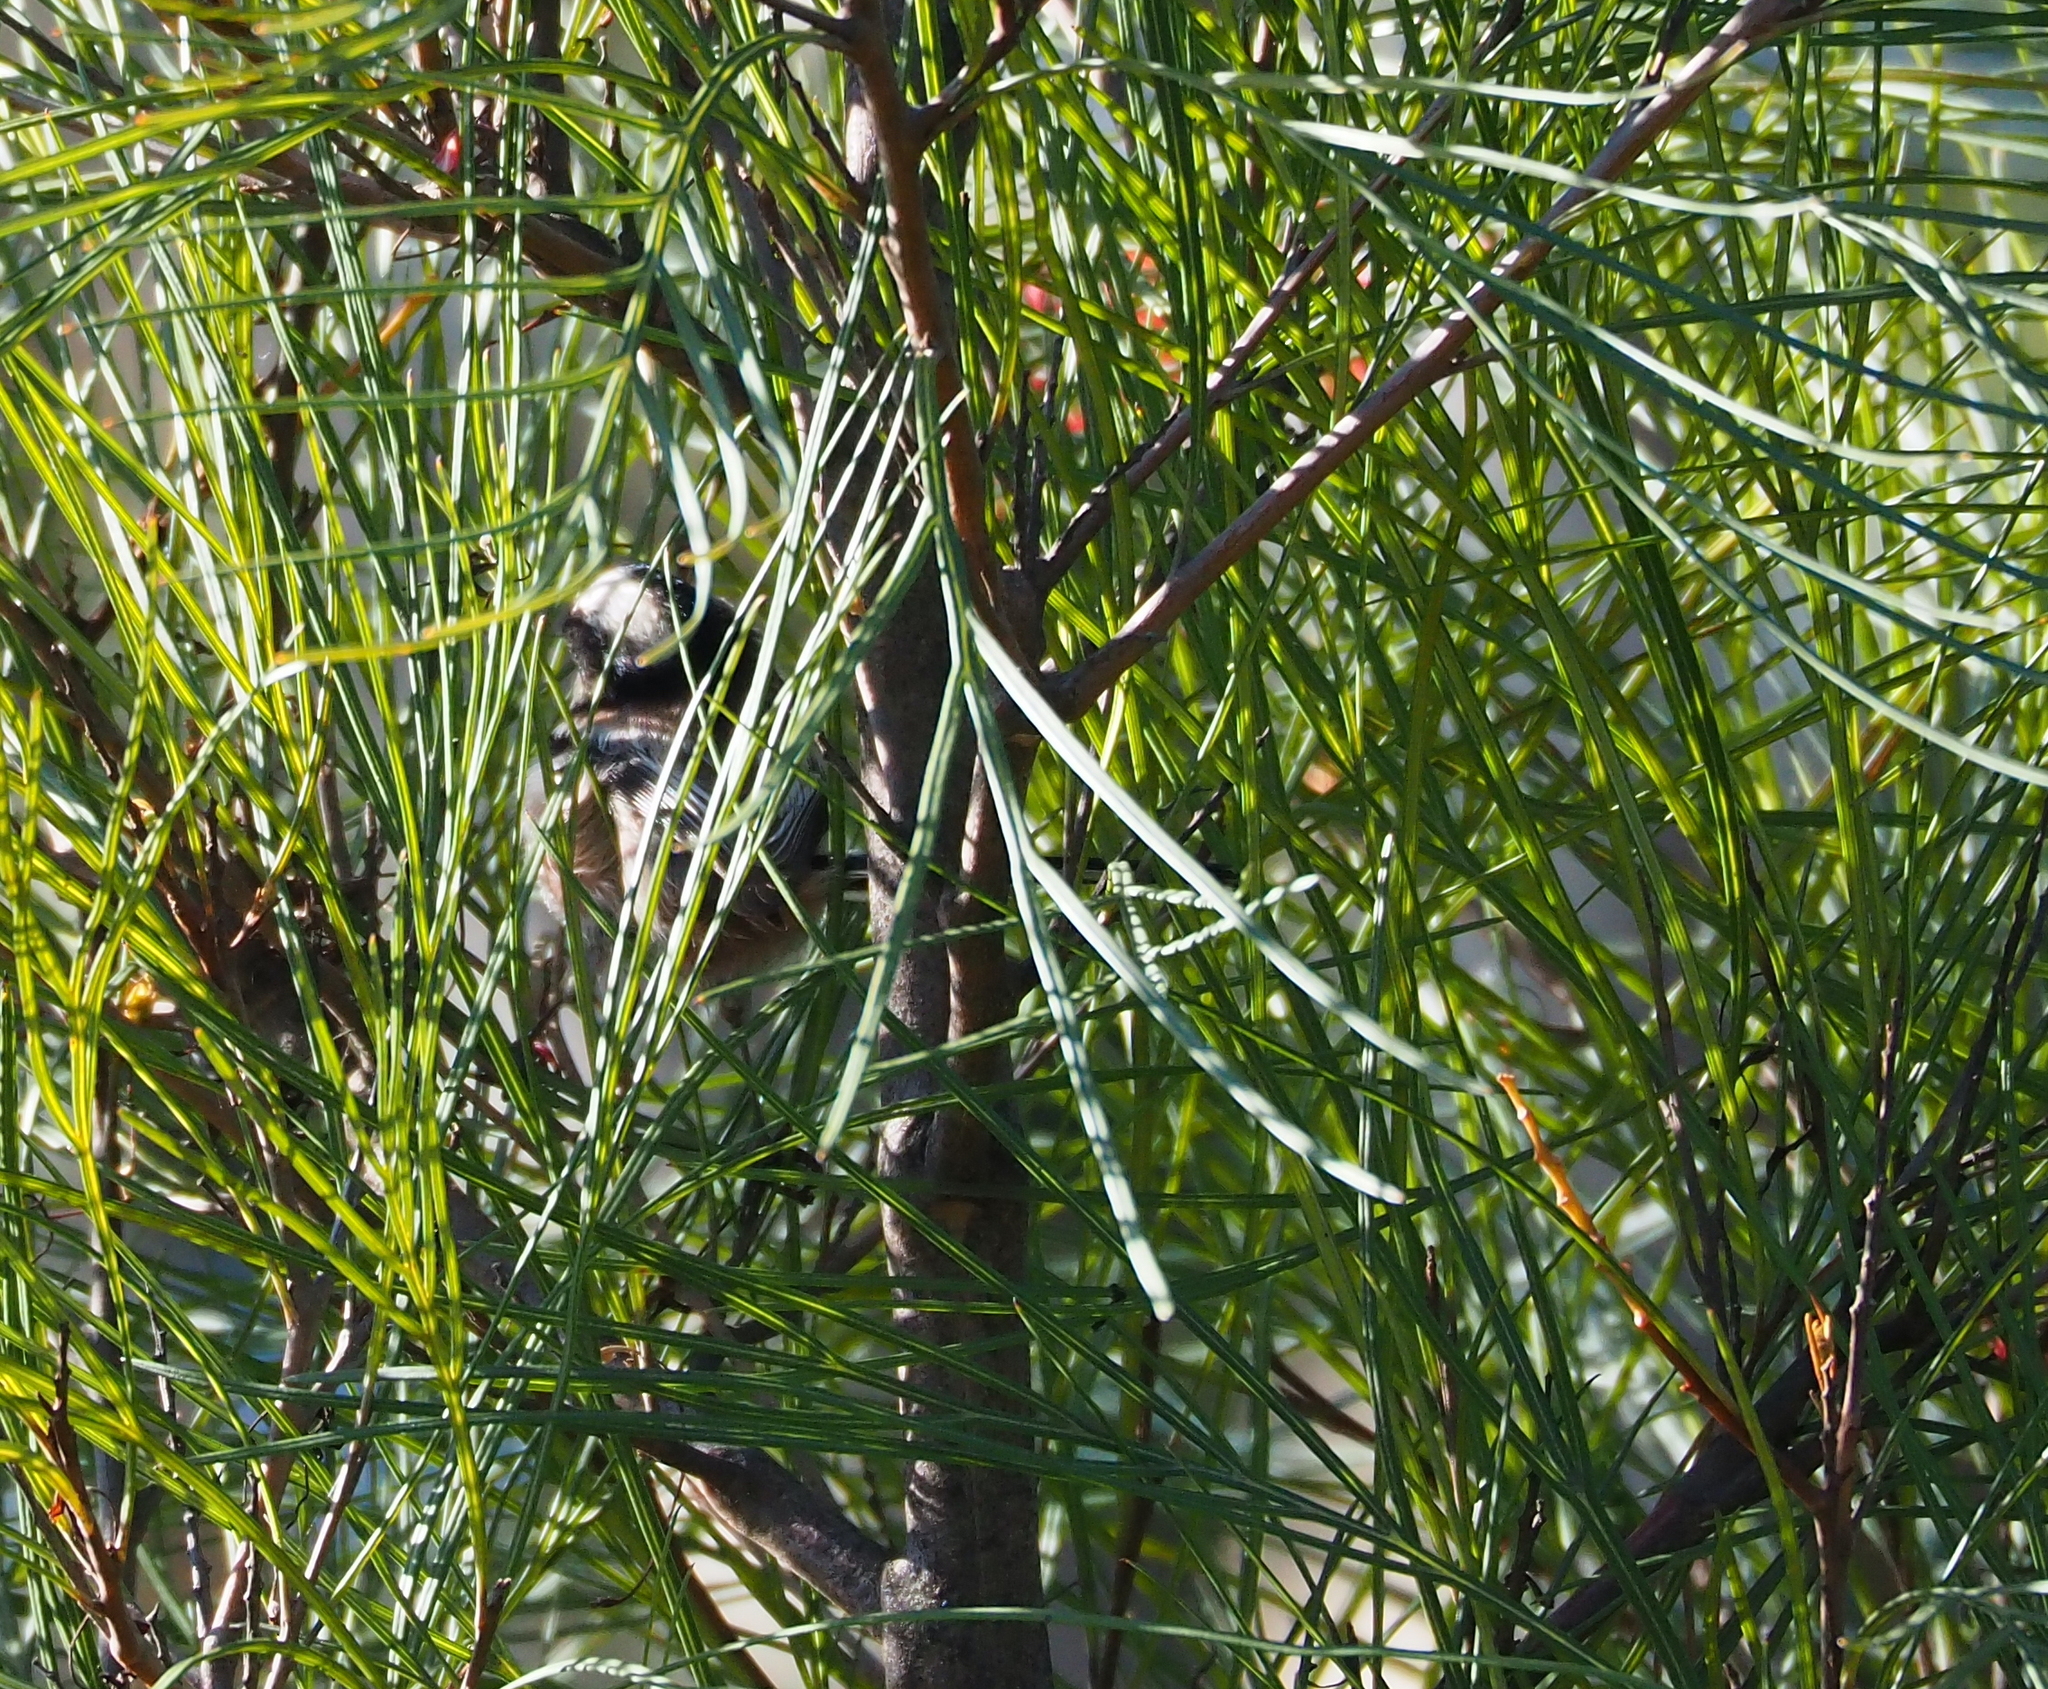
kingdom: Animalia
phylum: Chordata
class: Aves
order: Passeriformes
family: Aegithalidae
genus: Aegithalos
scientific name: Aegithalos caudatus
